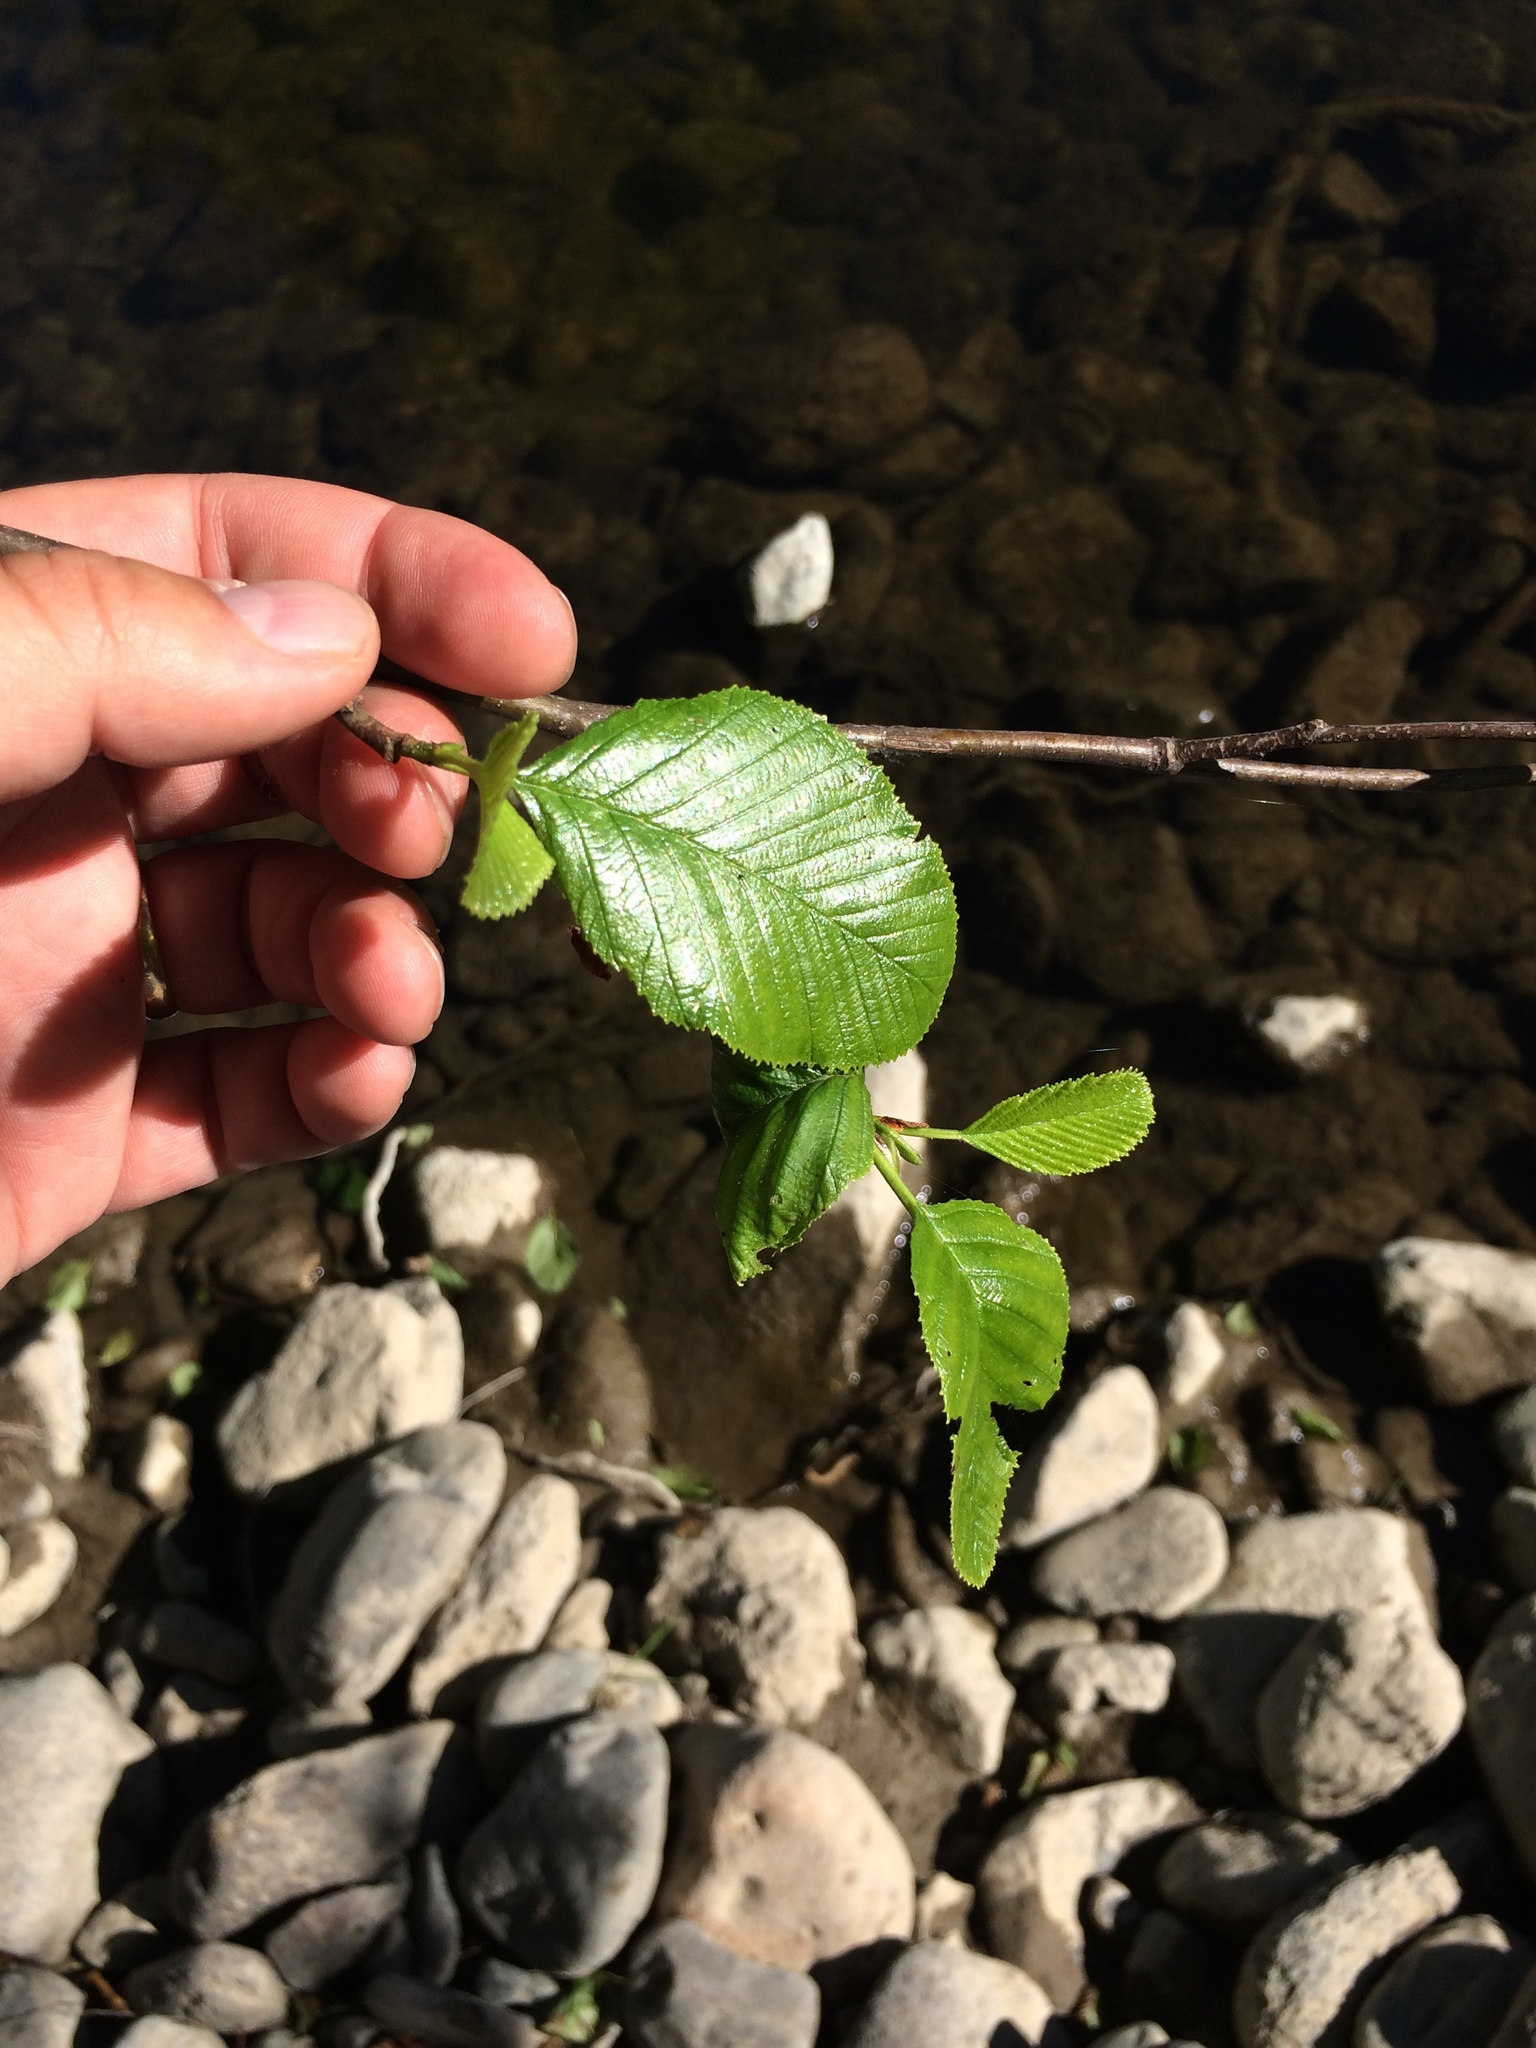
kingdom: Plantae
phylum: Tracheophyta
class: Magnoliopsida
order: Fagales
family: Betulaceae
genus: Alnus
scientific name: Alnus rhombifolia
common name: California alder
